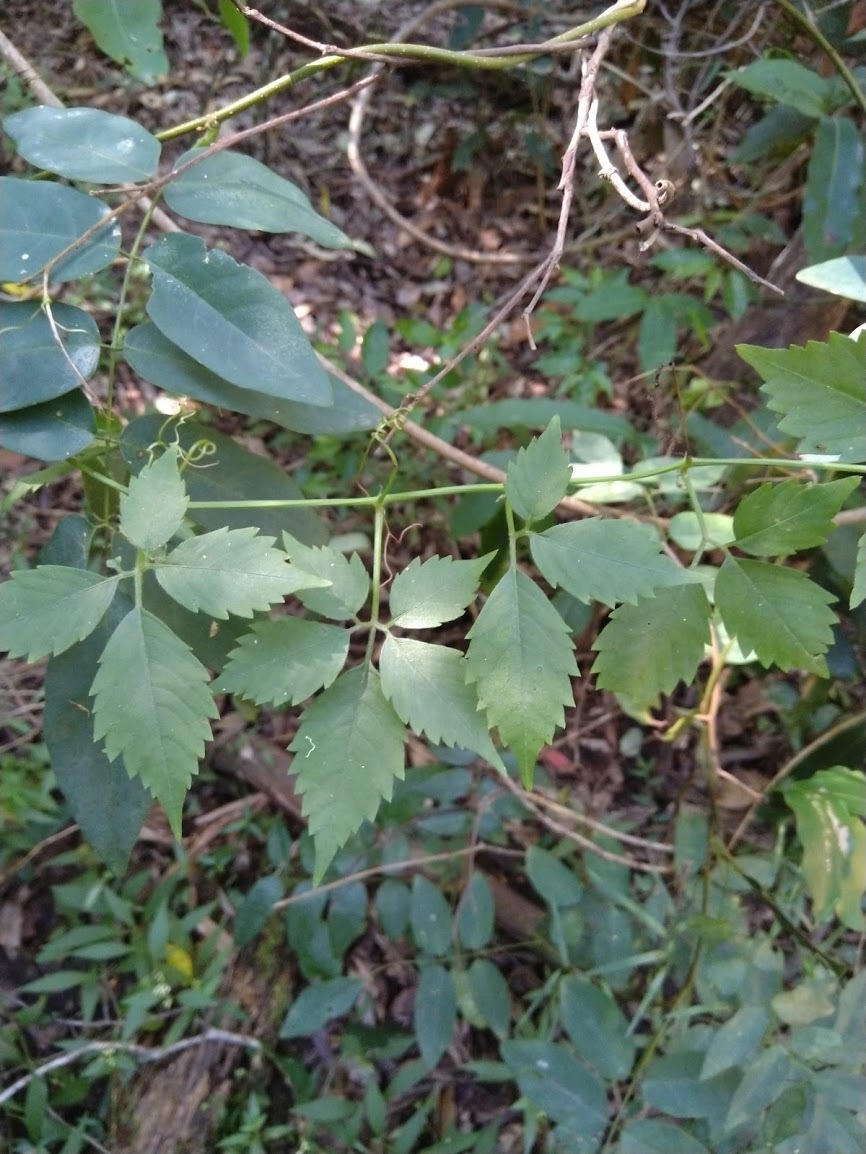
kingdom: Plantae
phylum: Tracheophyta
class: Magnoliopsida
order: Vitales
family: Vitaceae
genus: Causonis
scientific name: Causonis clematidea
